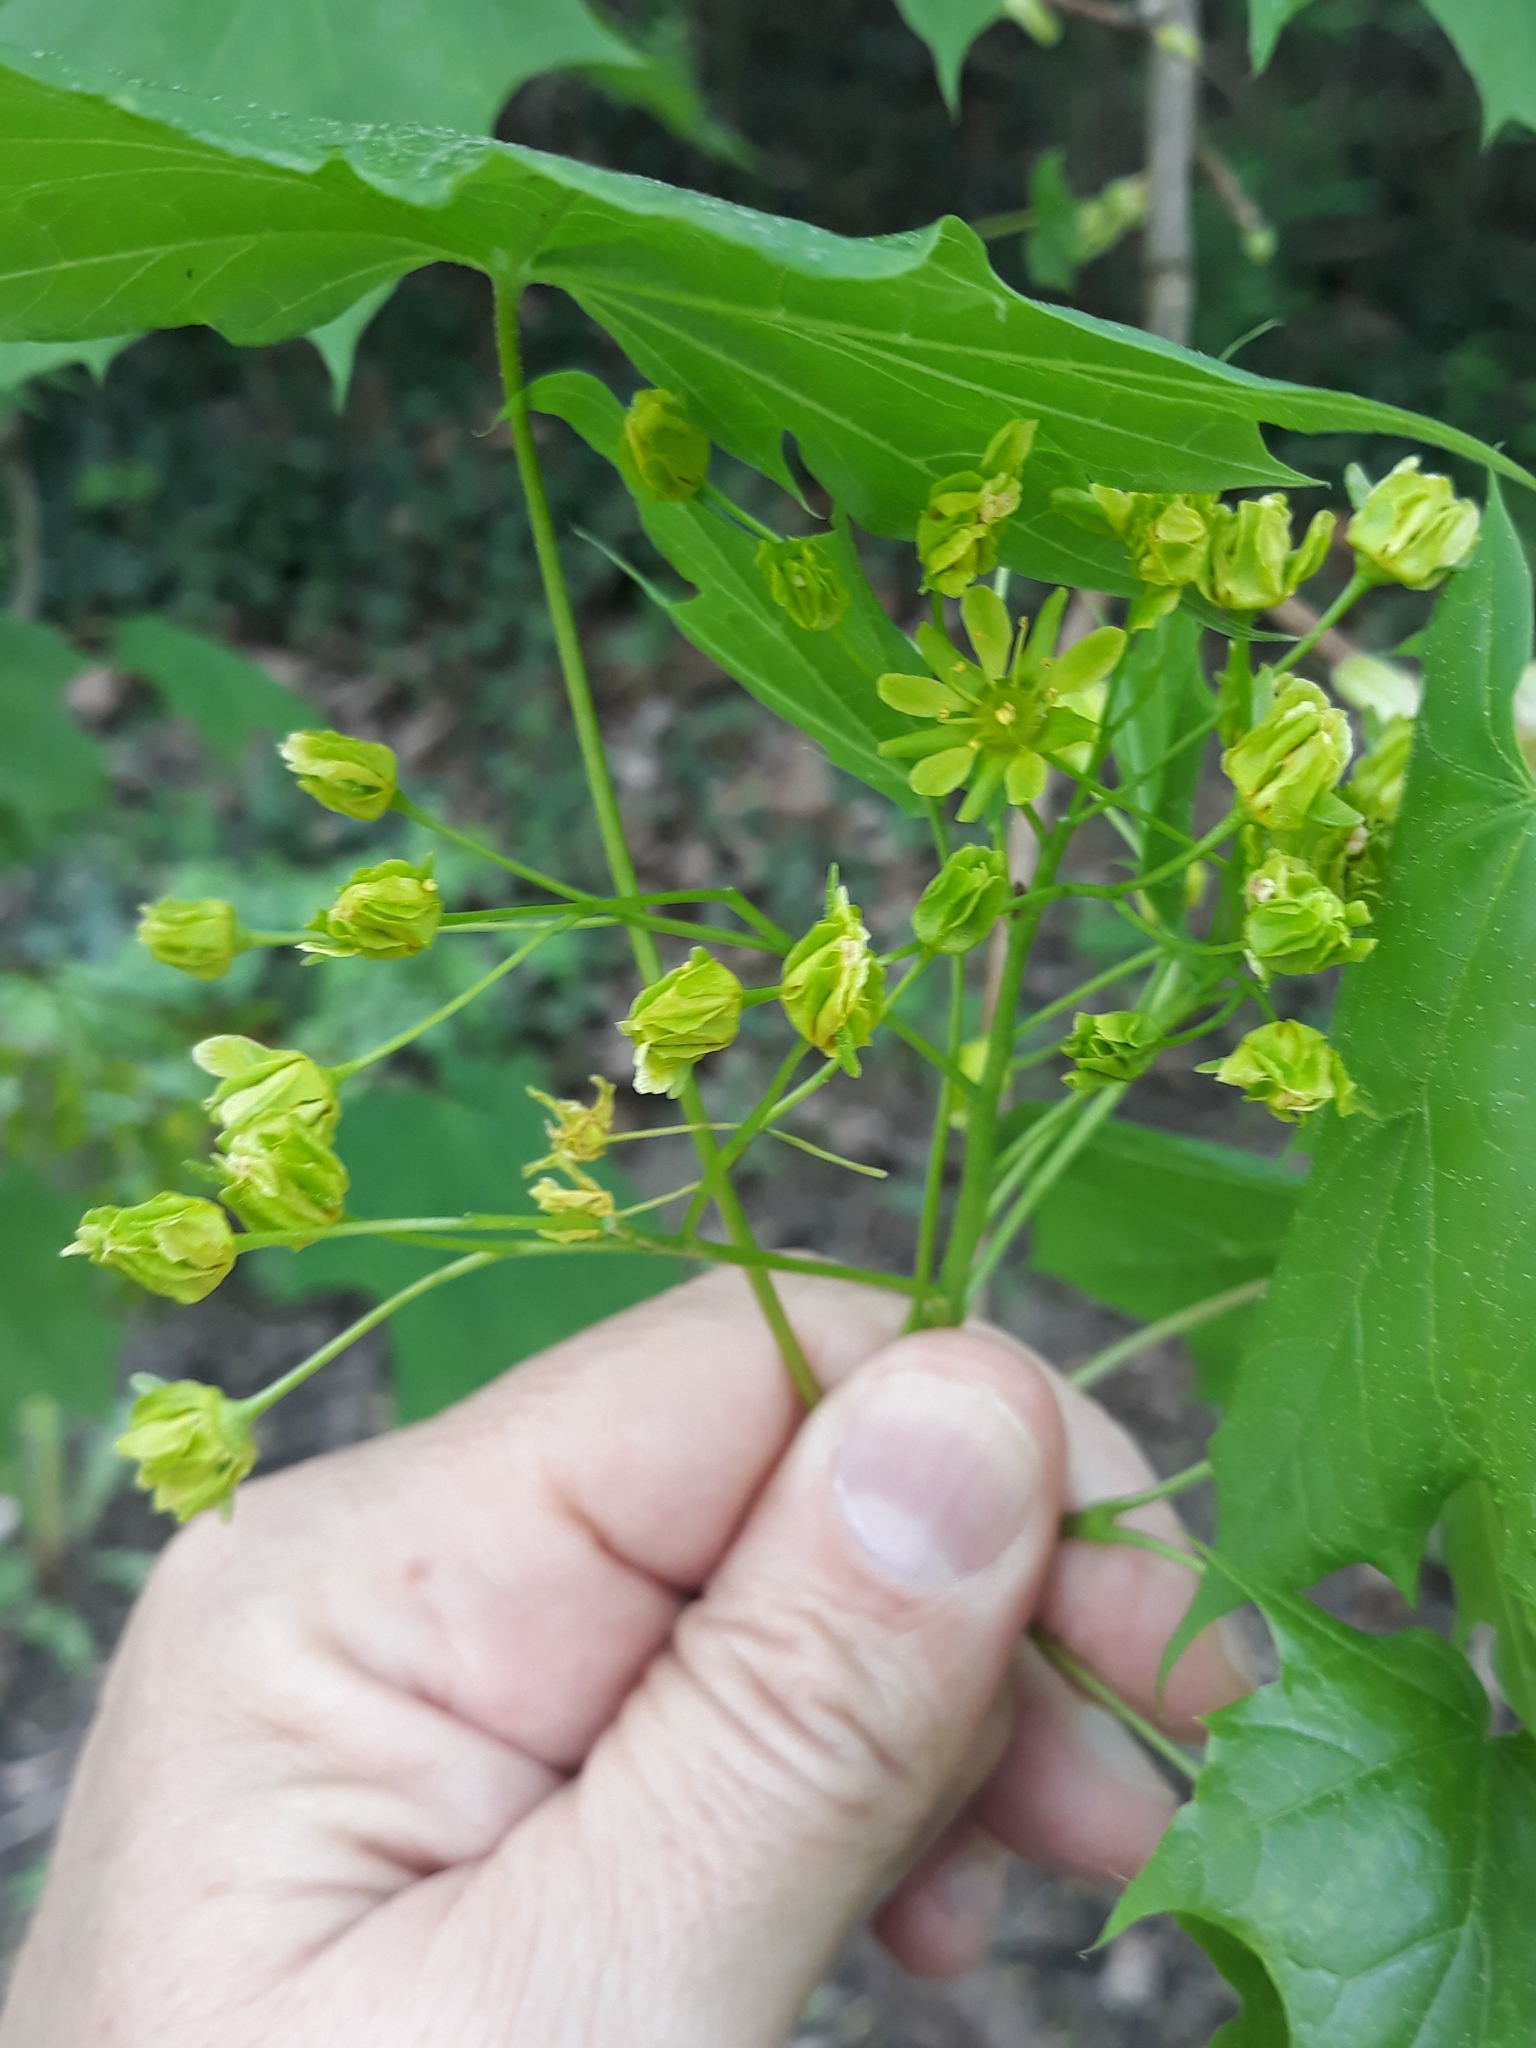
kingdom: Plantae
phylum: Tracheophyta
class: Magnoliopsida
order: Sapindales
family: Sapindaceae
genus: Acer
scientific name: Acer platanoides
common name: Norway maple
